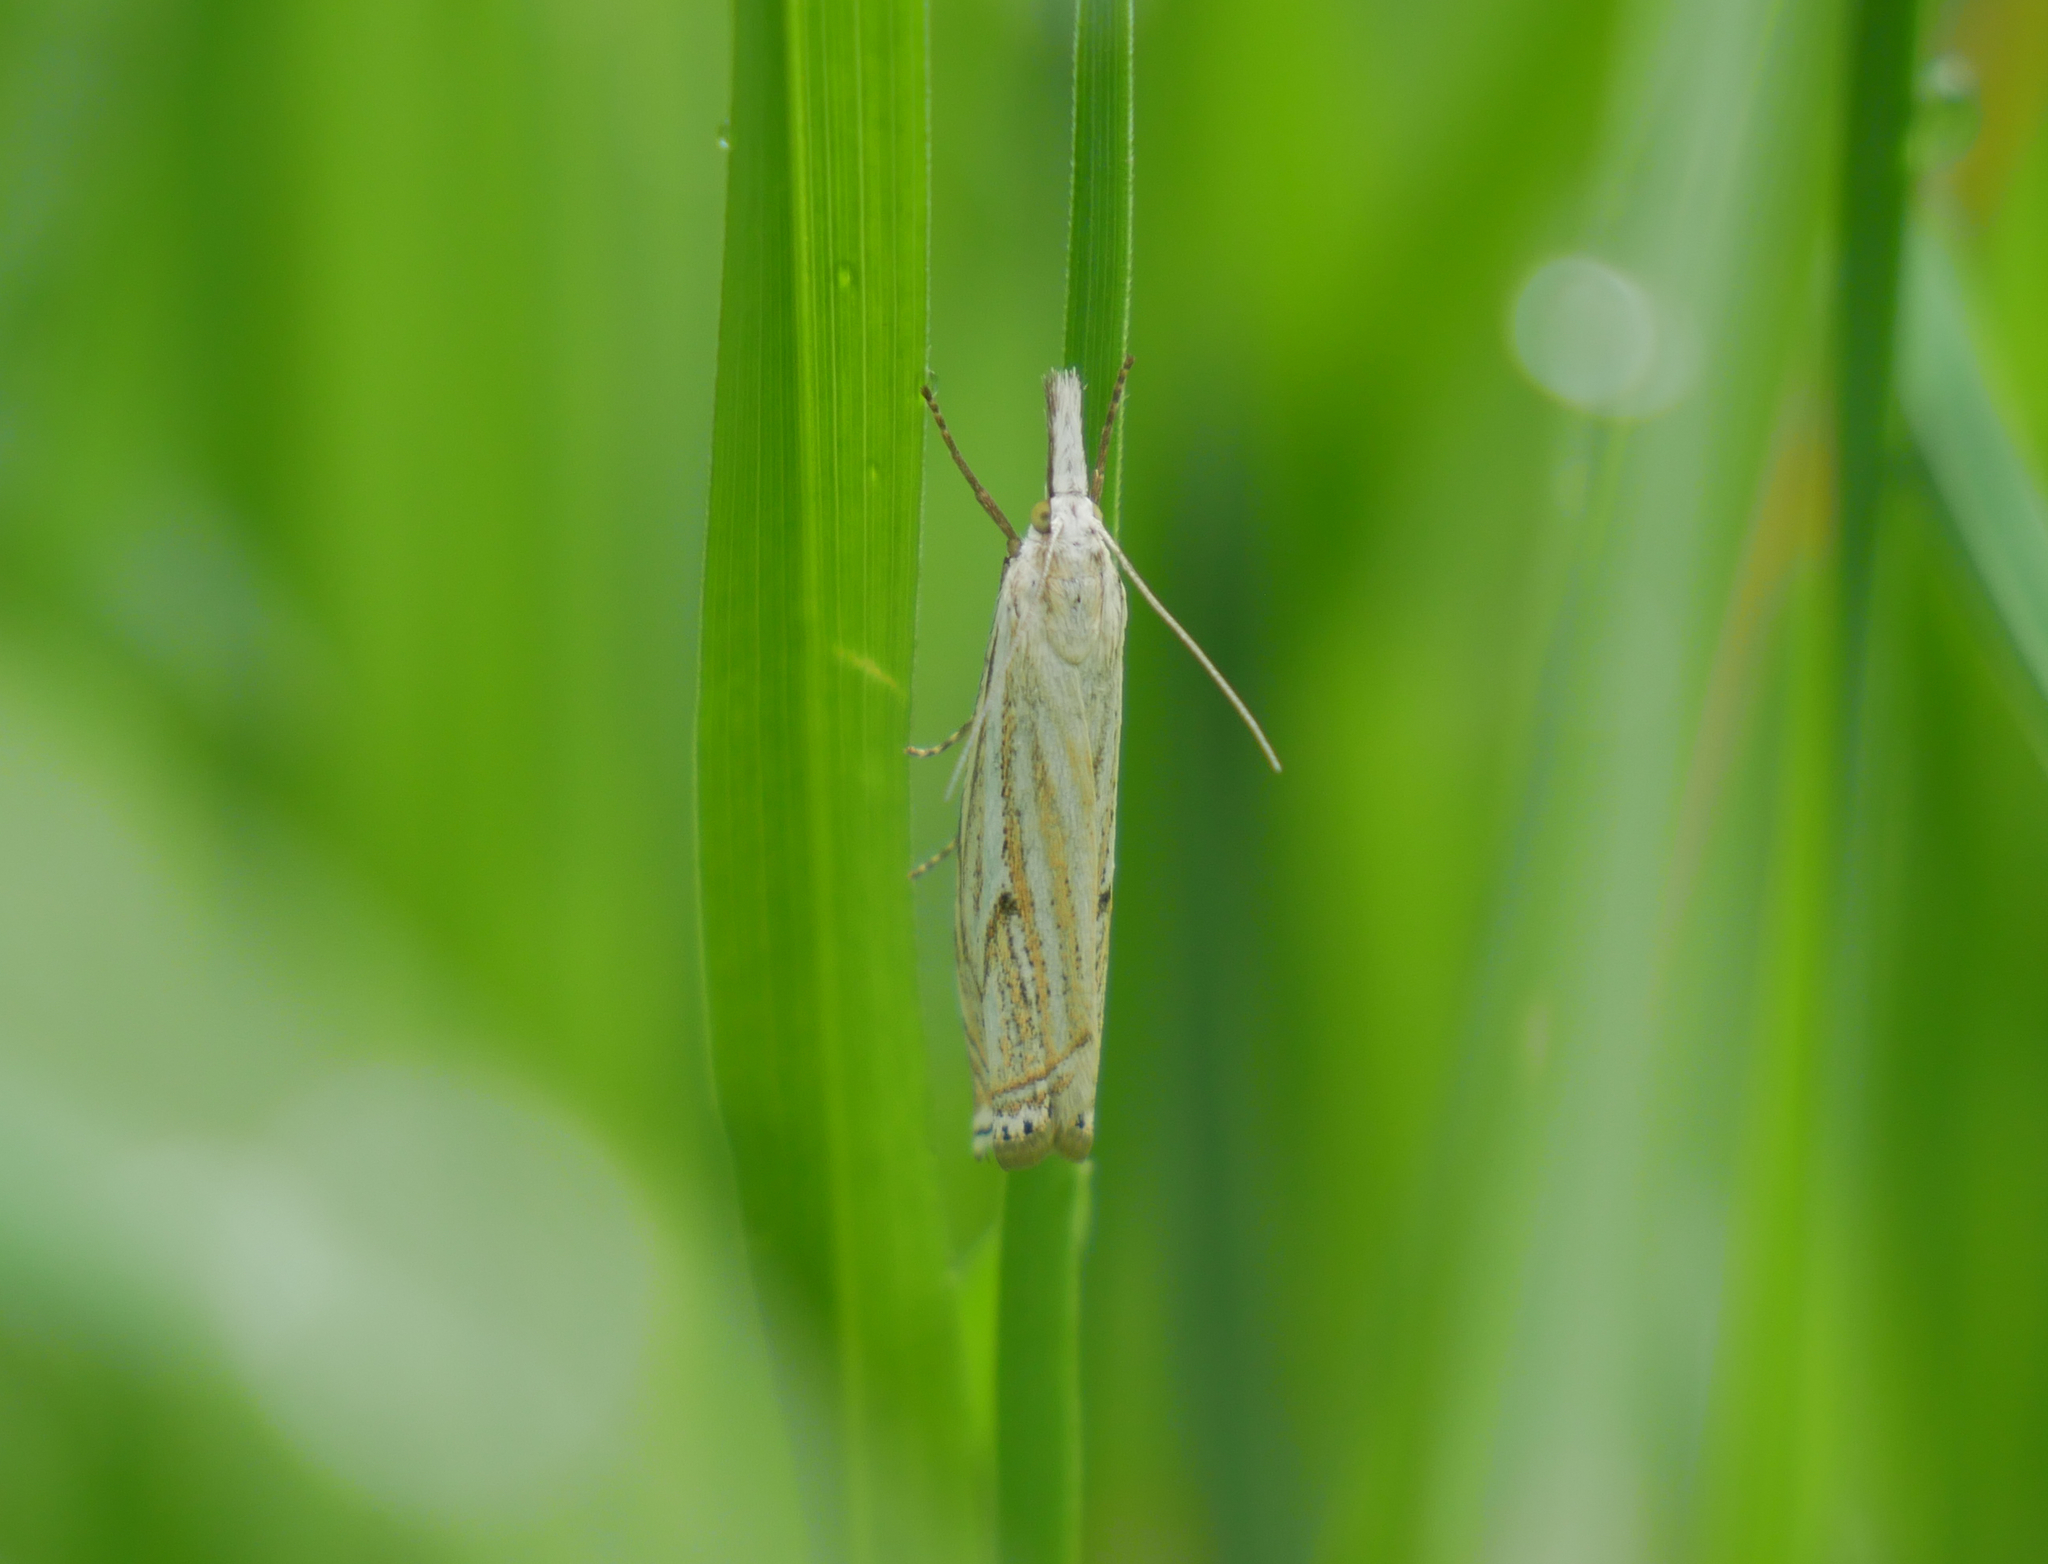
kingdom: Animalia
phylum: Arthropoda
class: Insecta
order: Lepidoptera
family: Crambidae
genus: Crambus
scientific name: Crambus nemorella
